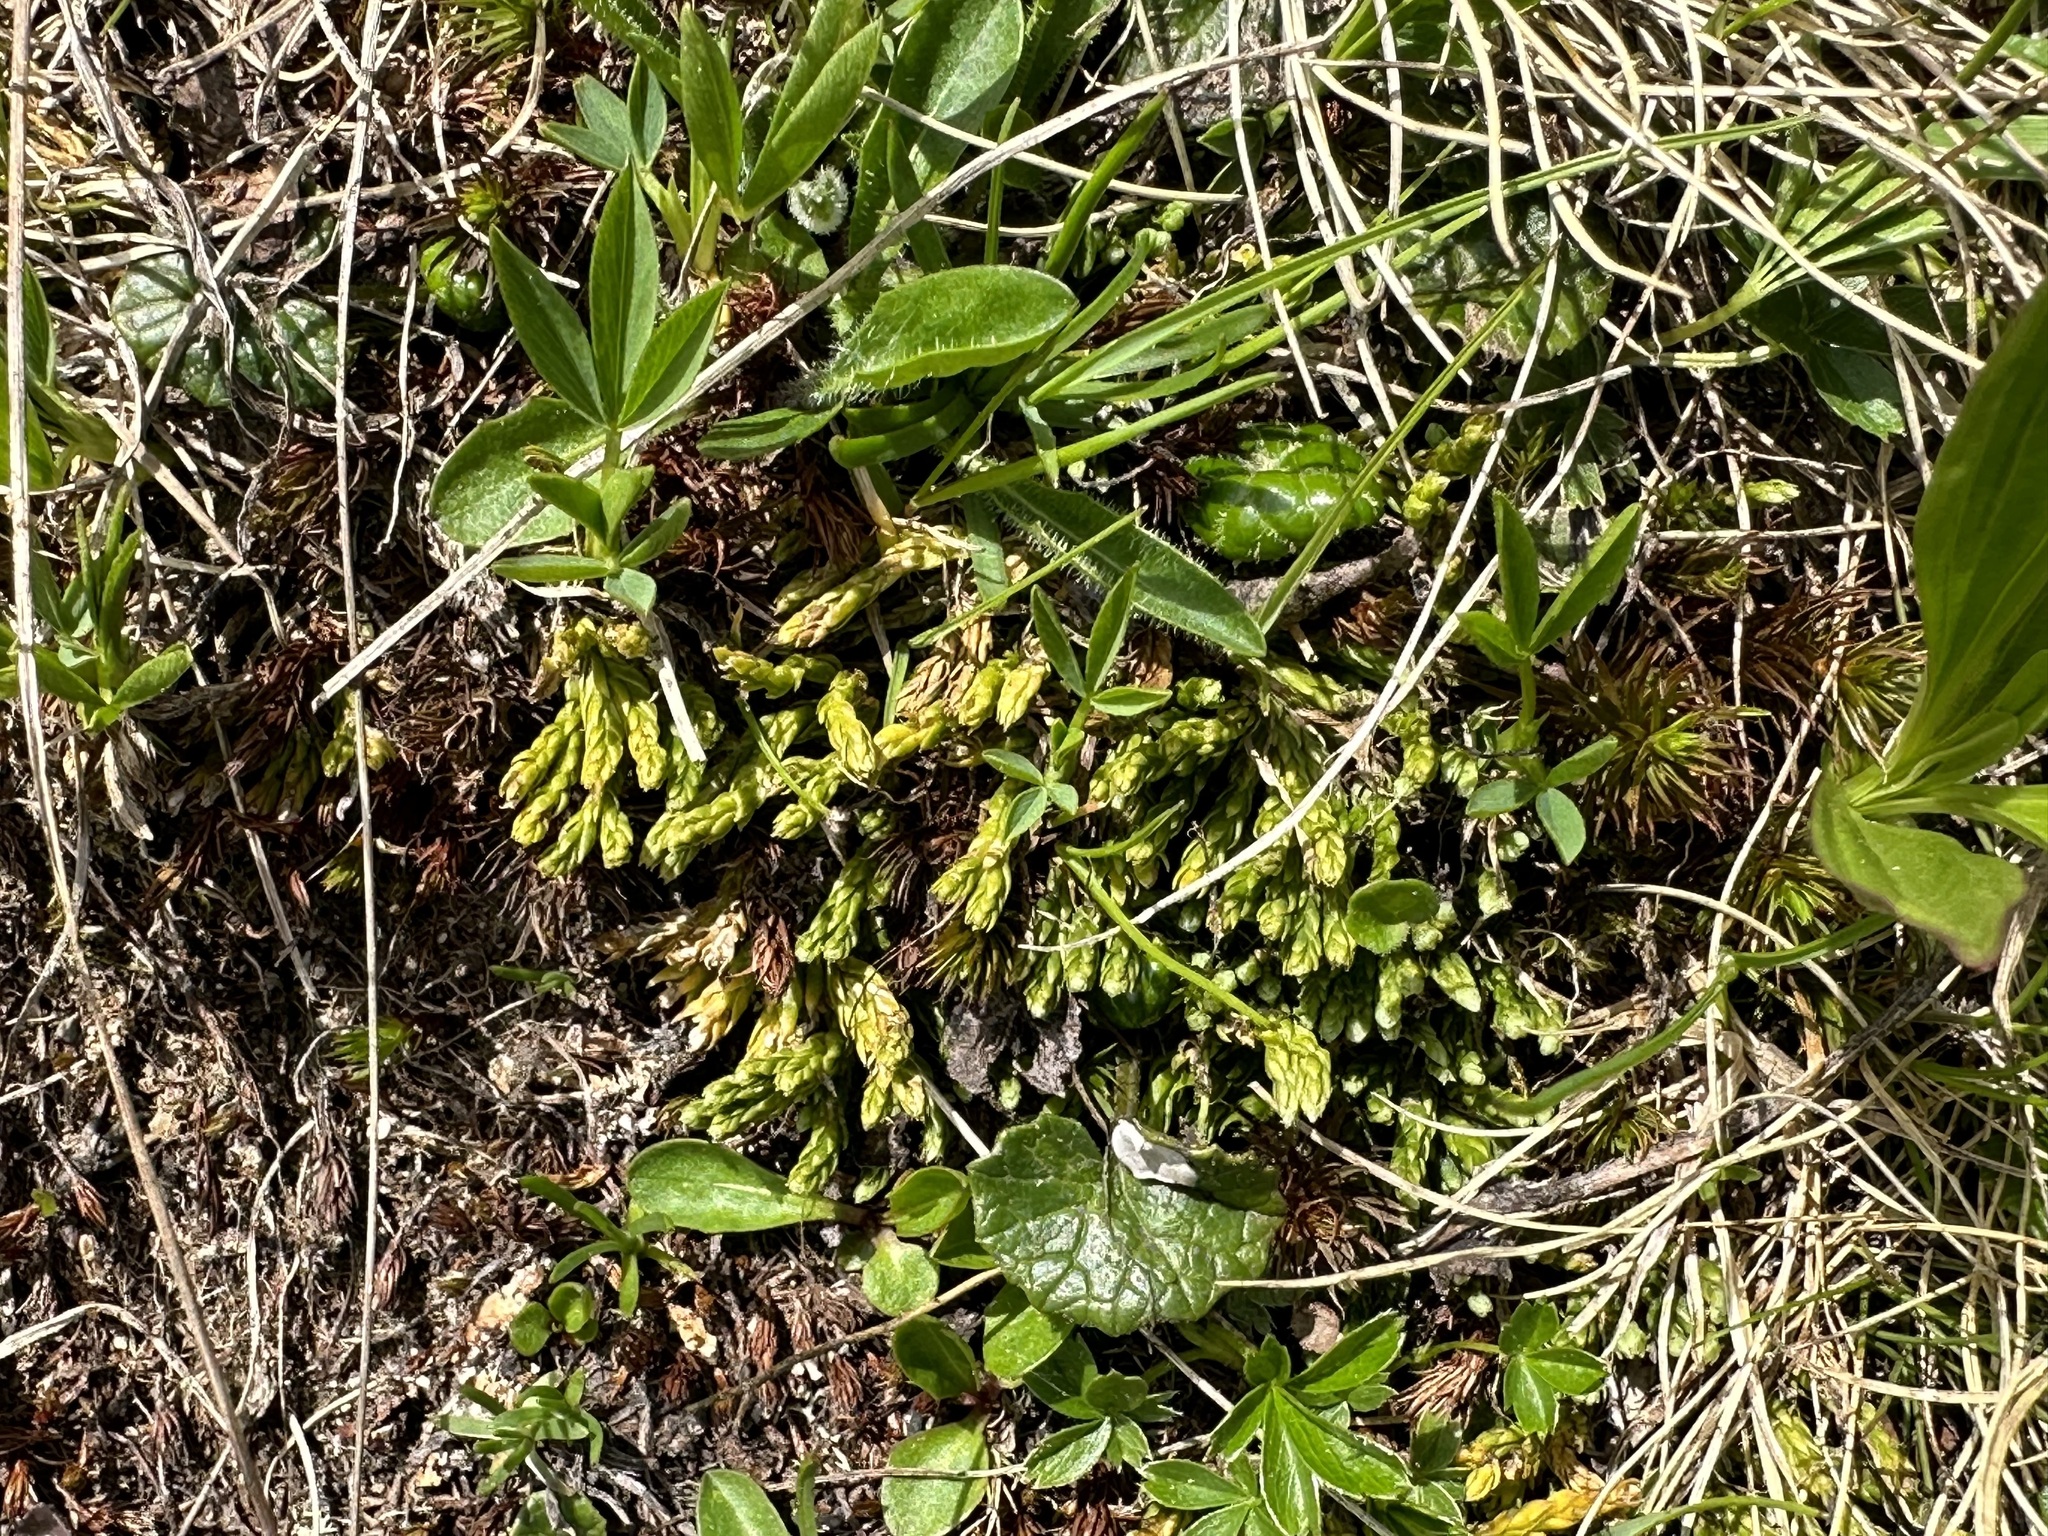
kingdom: Plantae
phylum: Tracheophyta
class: Lycopodiopsida
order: Lycopodiales
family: Lycopodiaceae
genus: Diphasiastrum
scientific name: Diphasiastrum alpinum
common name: Alpine clubmoss
